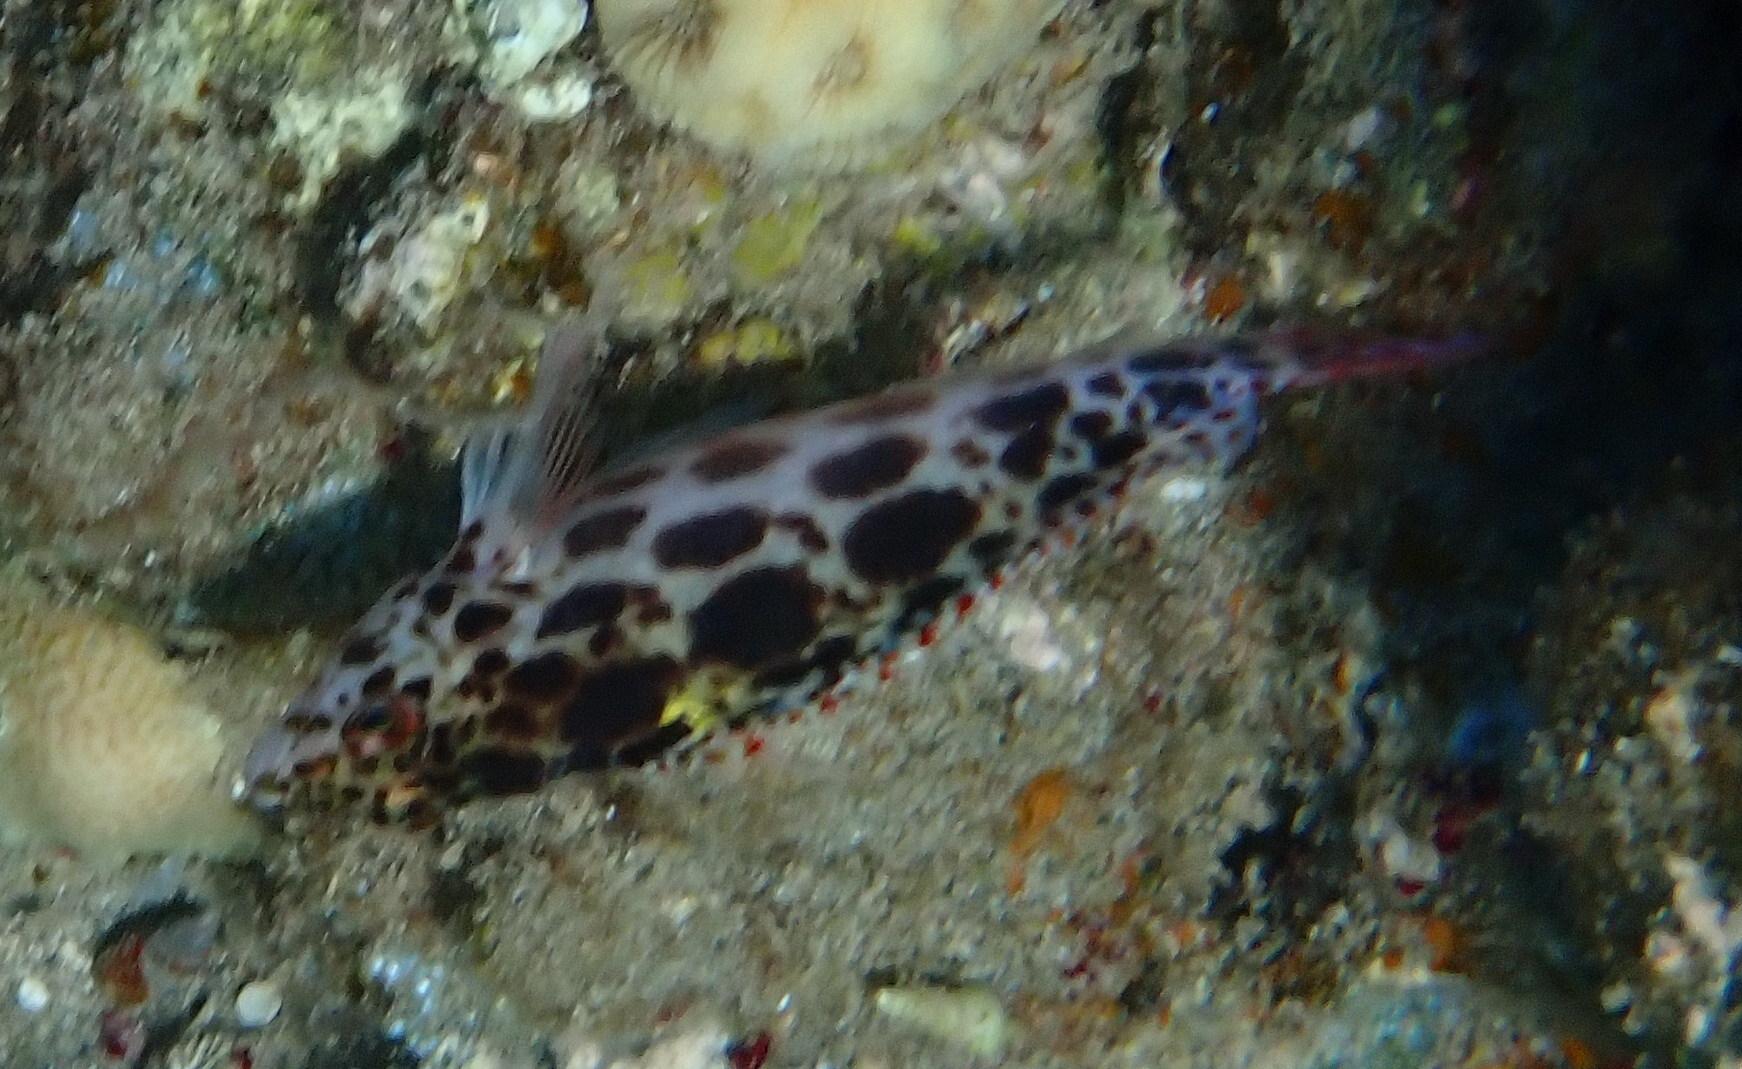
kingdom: Animalia
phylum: Chordata
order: Perciformes
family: Cirrhitidae
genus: Cirrhitichthys
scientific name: Cirrhitichthys oxycephalus
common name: Spotted hawkfish
